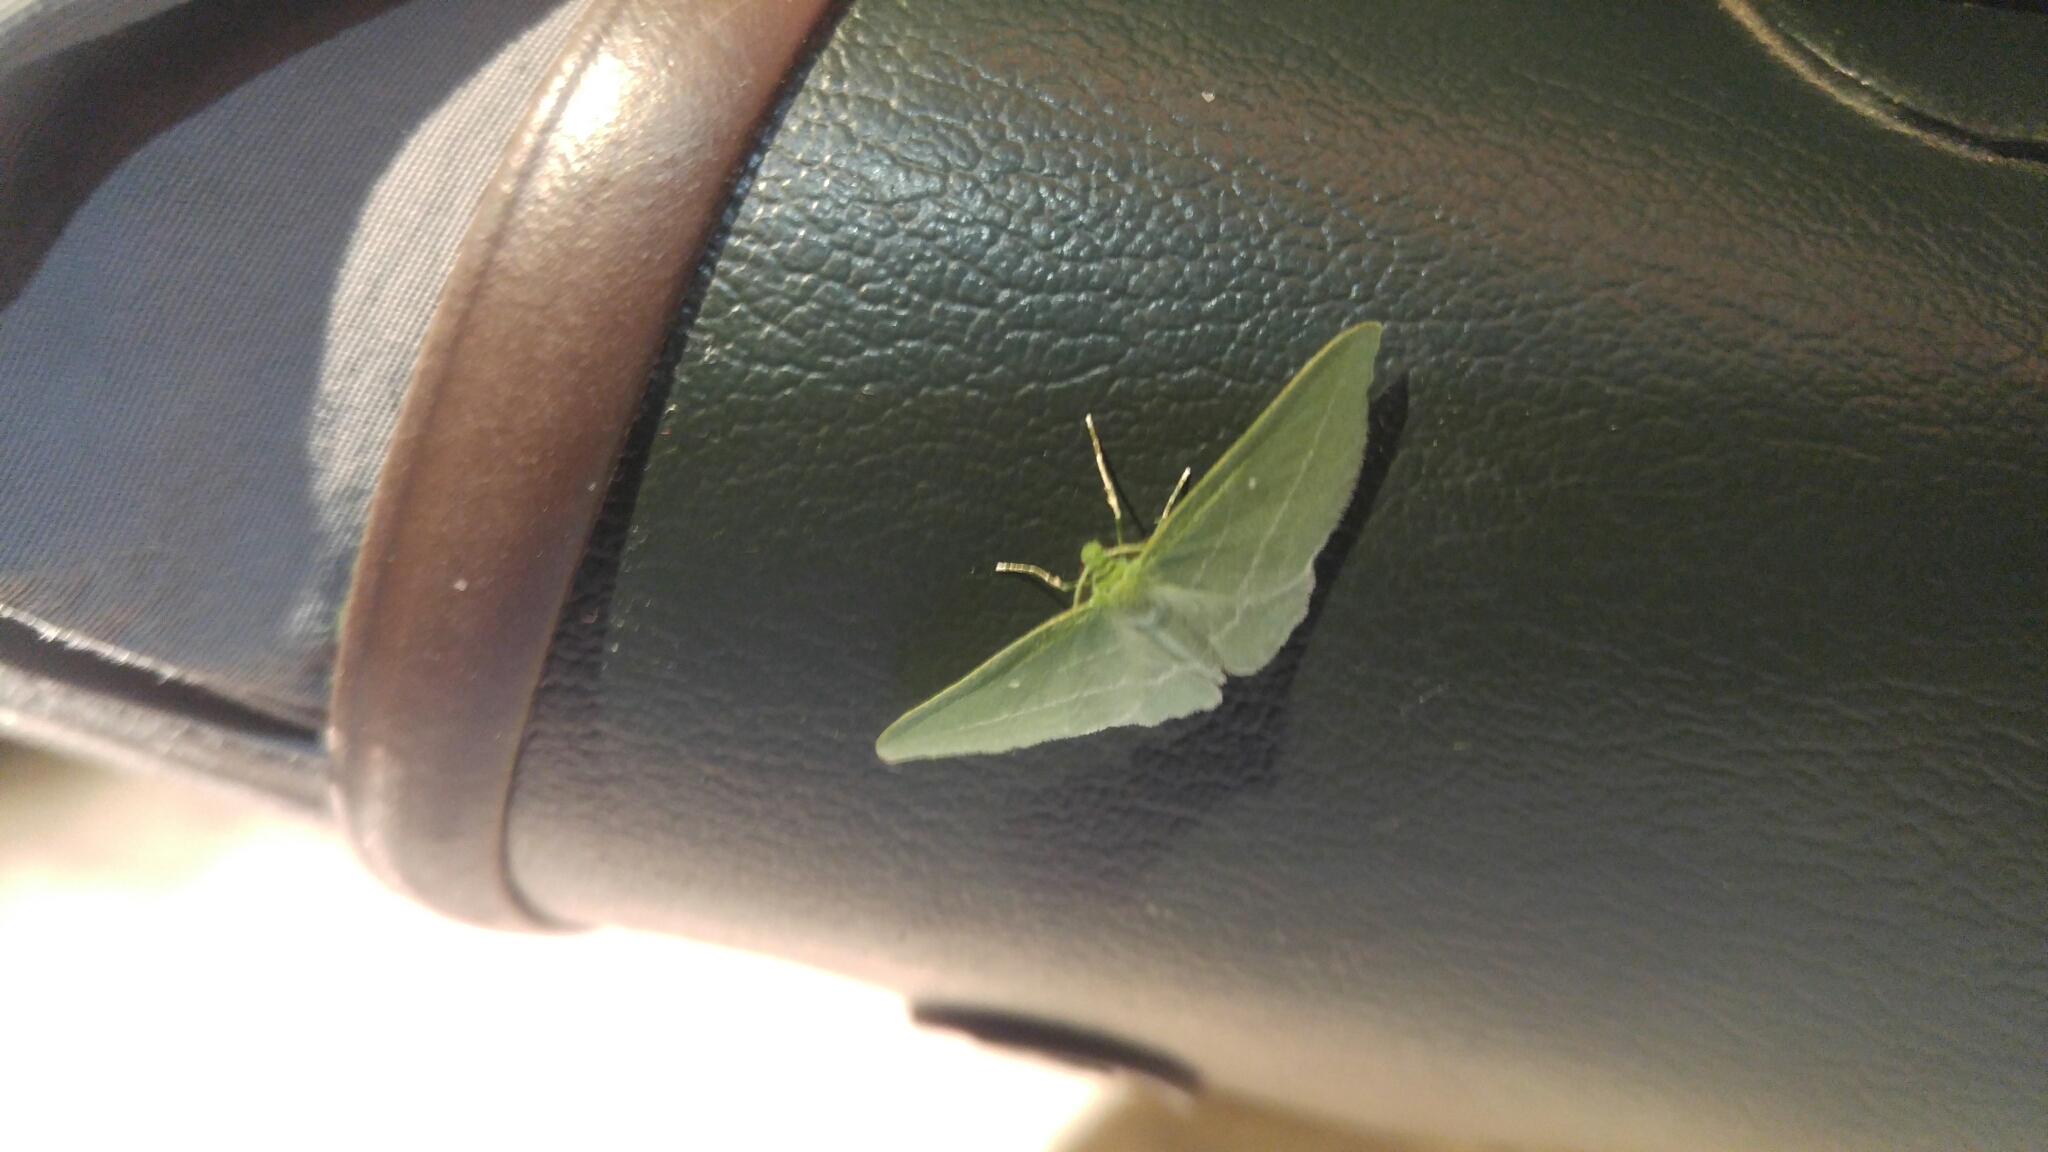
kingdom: Animalia
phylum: Arthropoda
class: Insecta
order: Lepidoptera
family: Geometridae
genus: Dyspteris
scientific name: Dyspteris abortivaria
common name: Bad-wing
